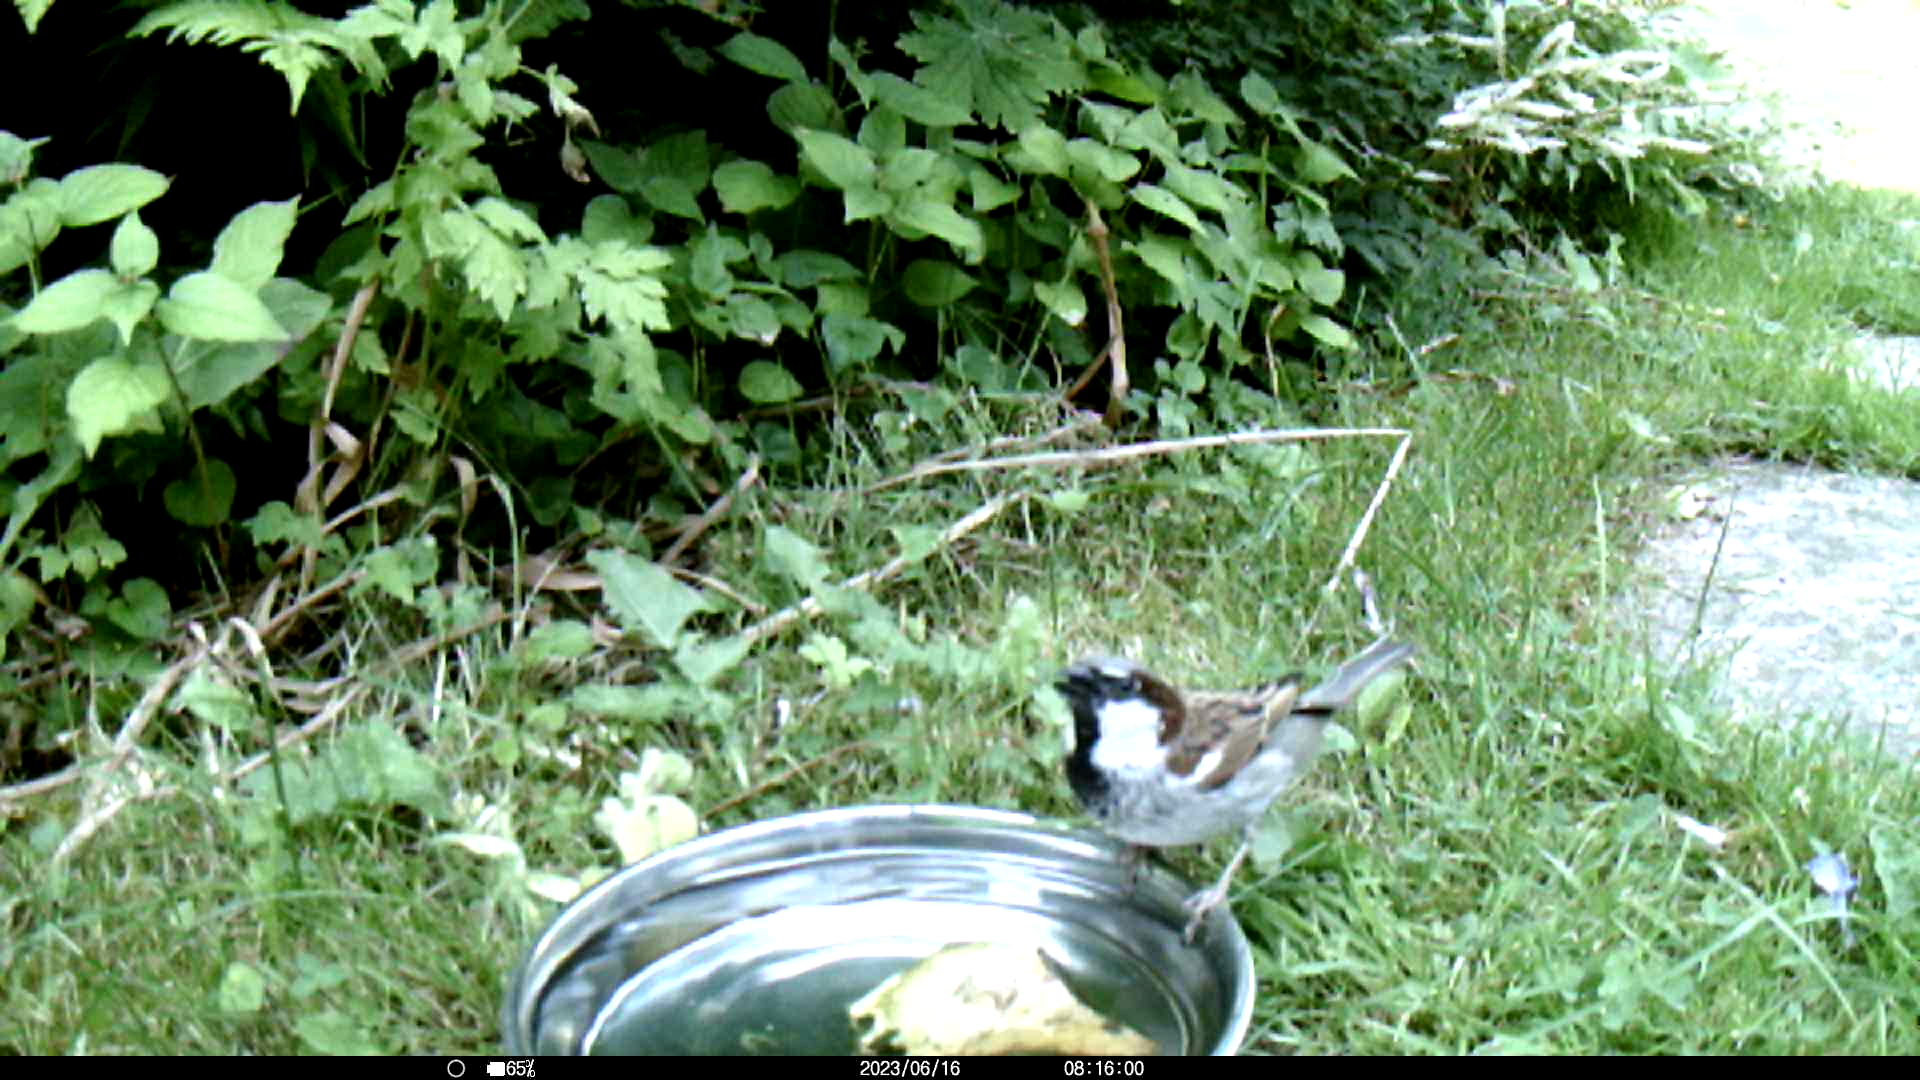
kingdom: Animalia
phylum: Chordata
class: Aves
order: Passeriformes
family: Passeridae
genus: Passer
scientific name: Passer domesticus
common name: House sparrow
